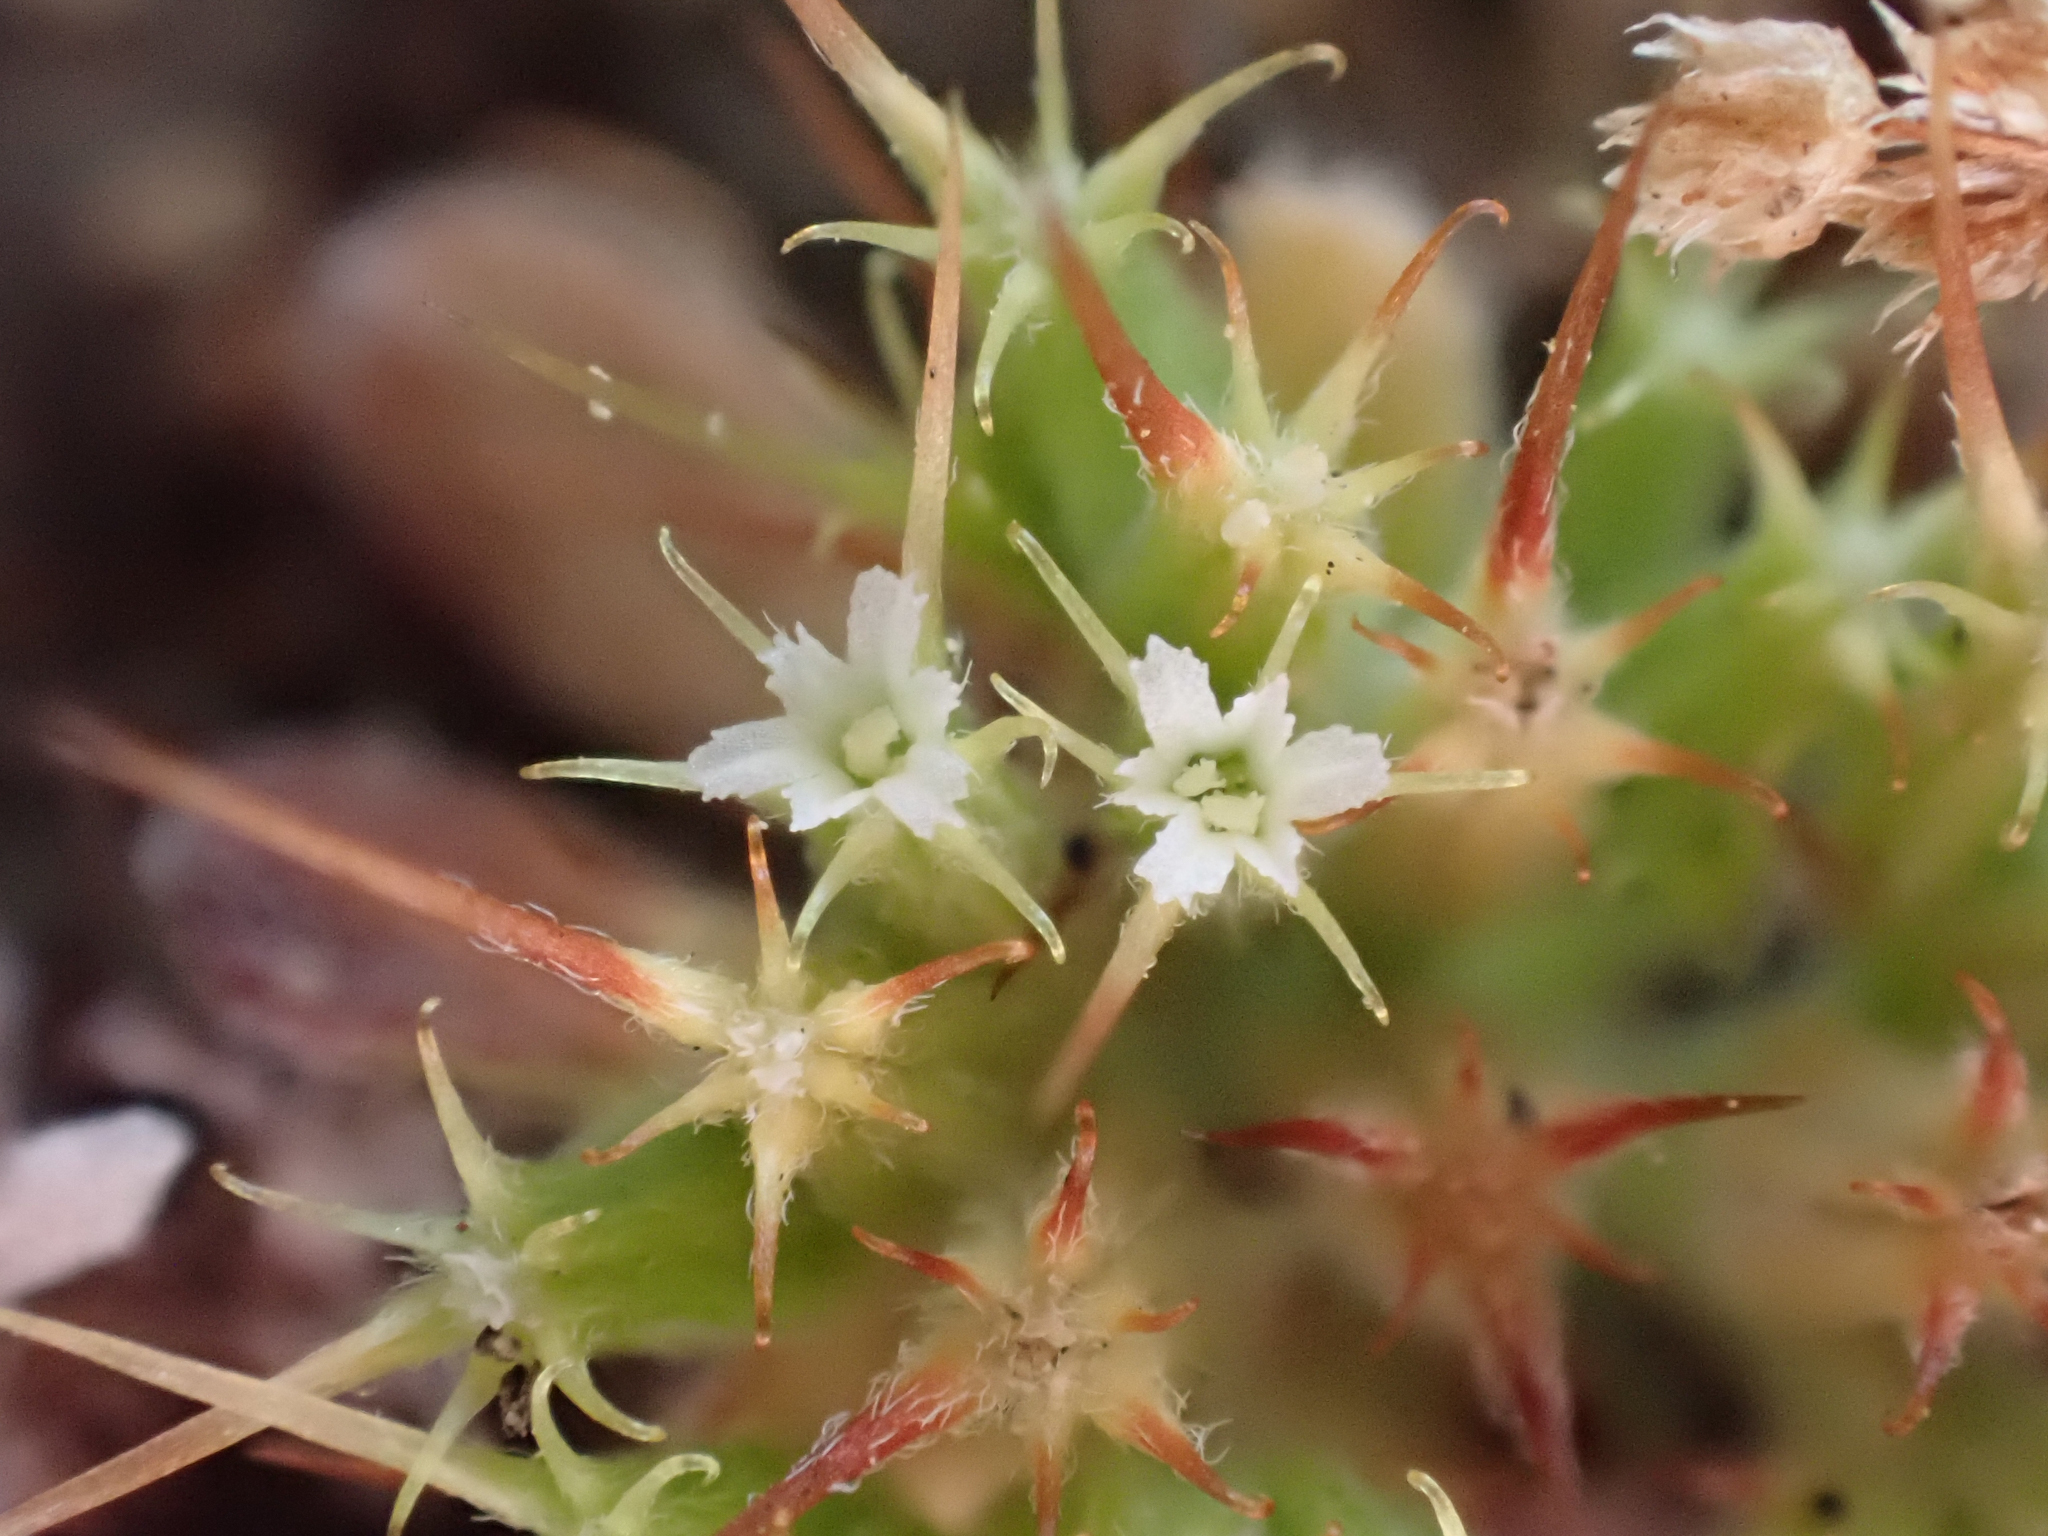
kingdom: Plantae
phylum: Tracheophyta
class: Magnoliopsida
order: Caryophyllales
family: Polygonaceae
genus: Chorizanthe
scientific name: Chorizanthe uniaristata
